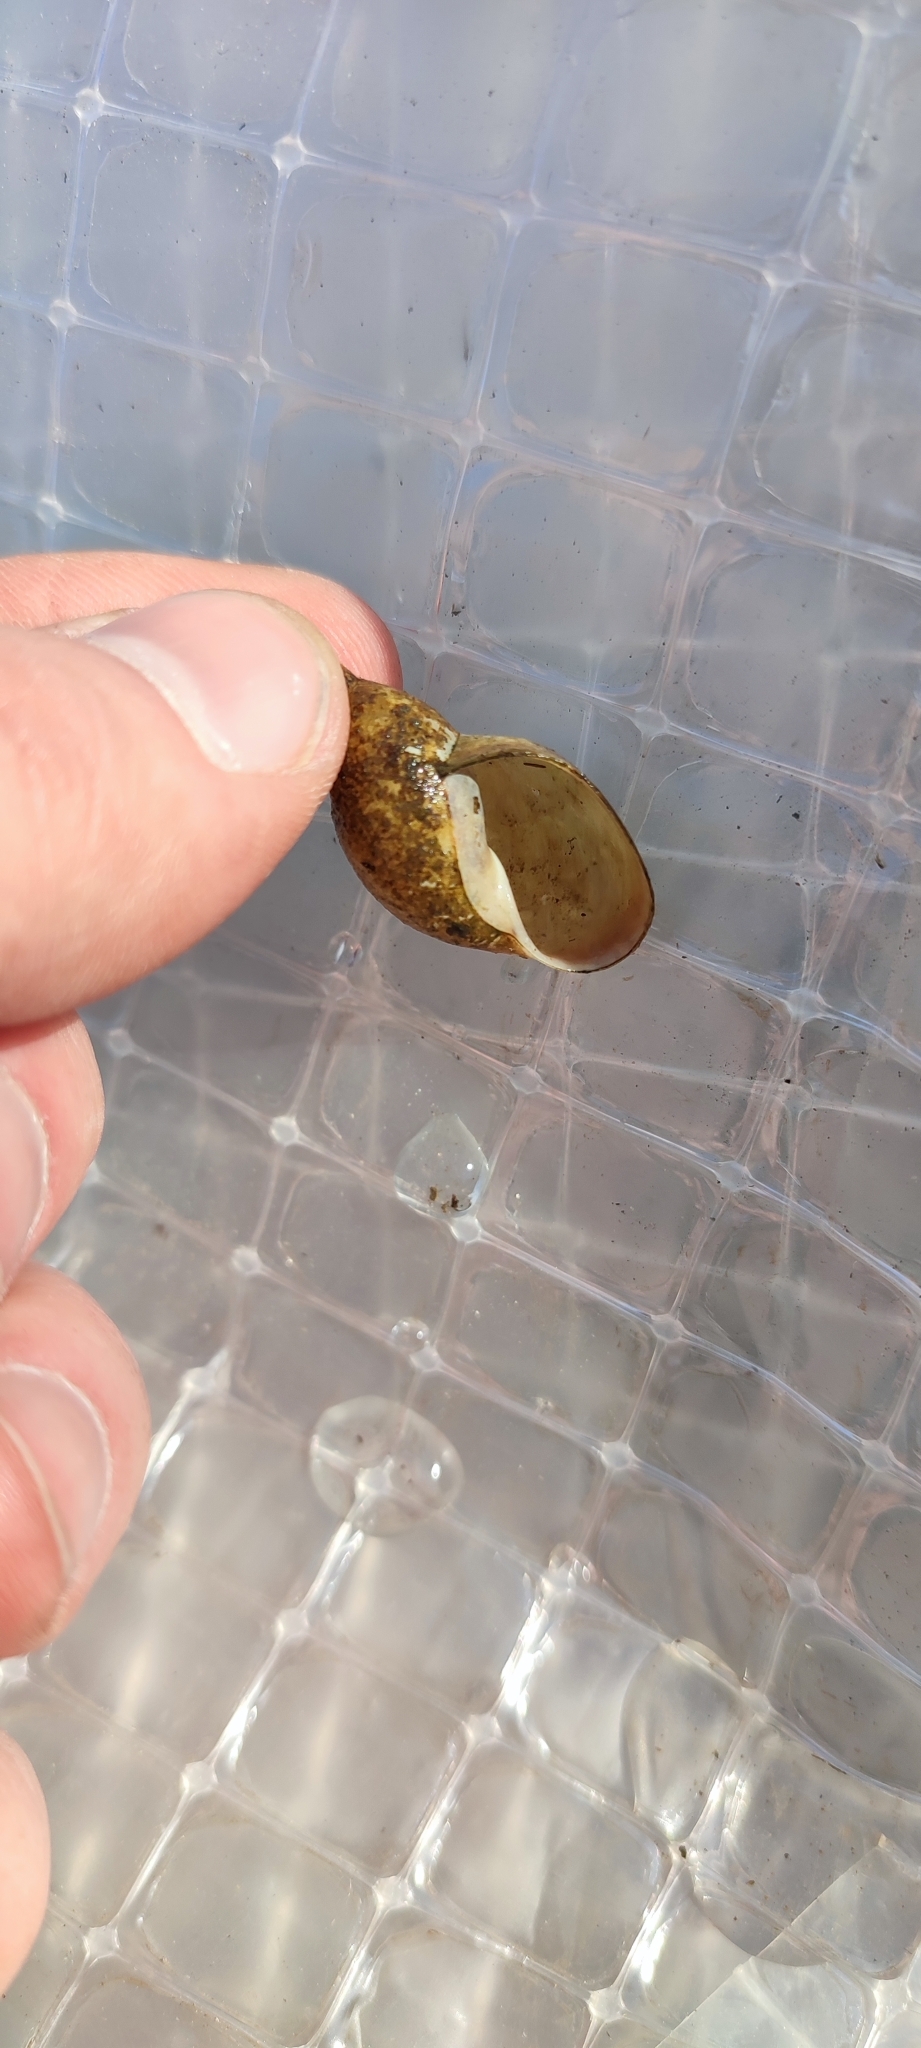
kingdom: Animalia
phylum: Mollusca
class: Gastropoda
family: Lymnaeidae
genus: Lymnaea
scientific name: Lymnaea stagnalis
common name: Great pond snail
